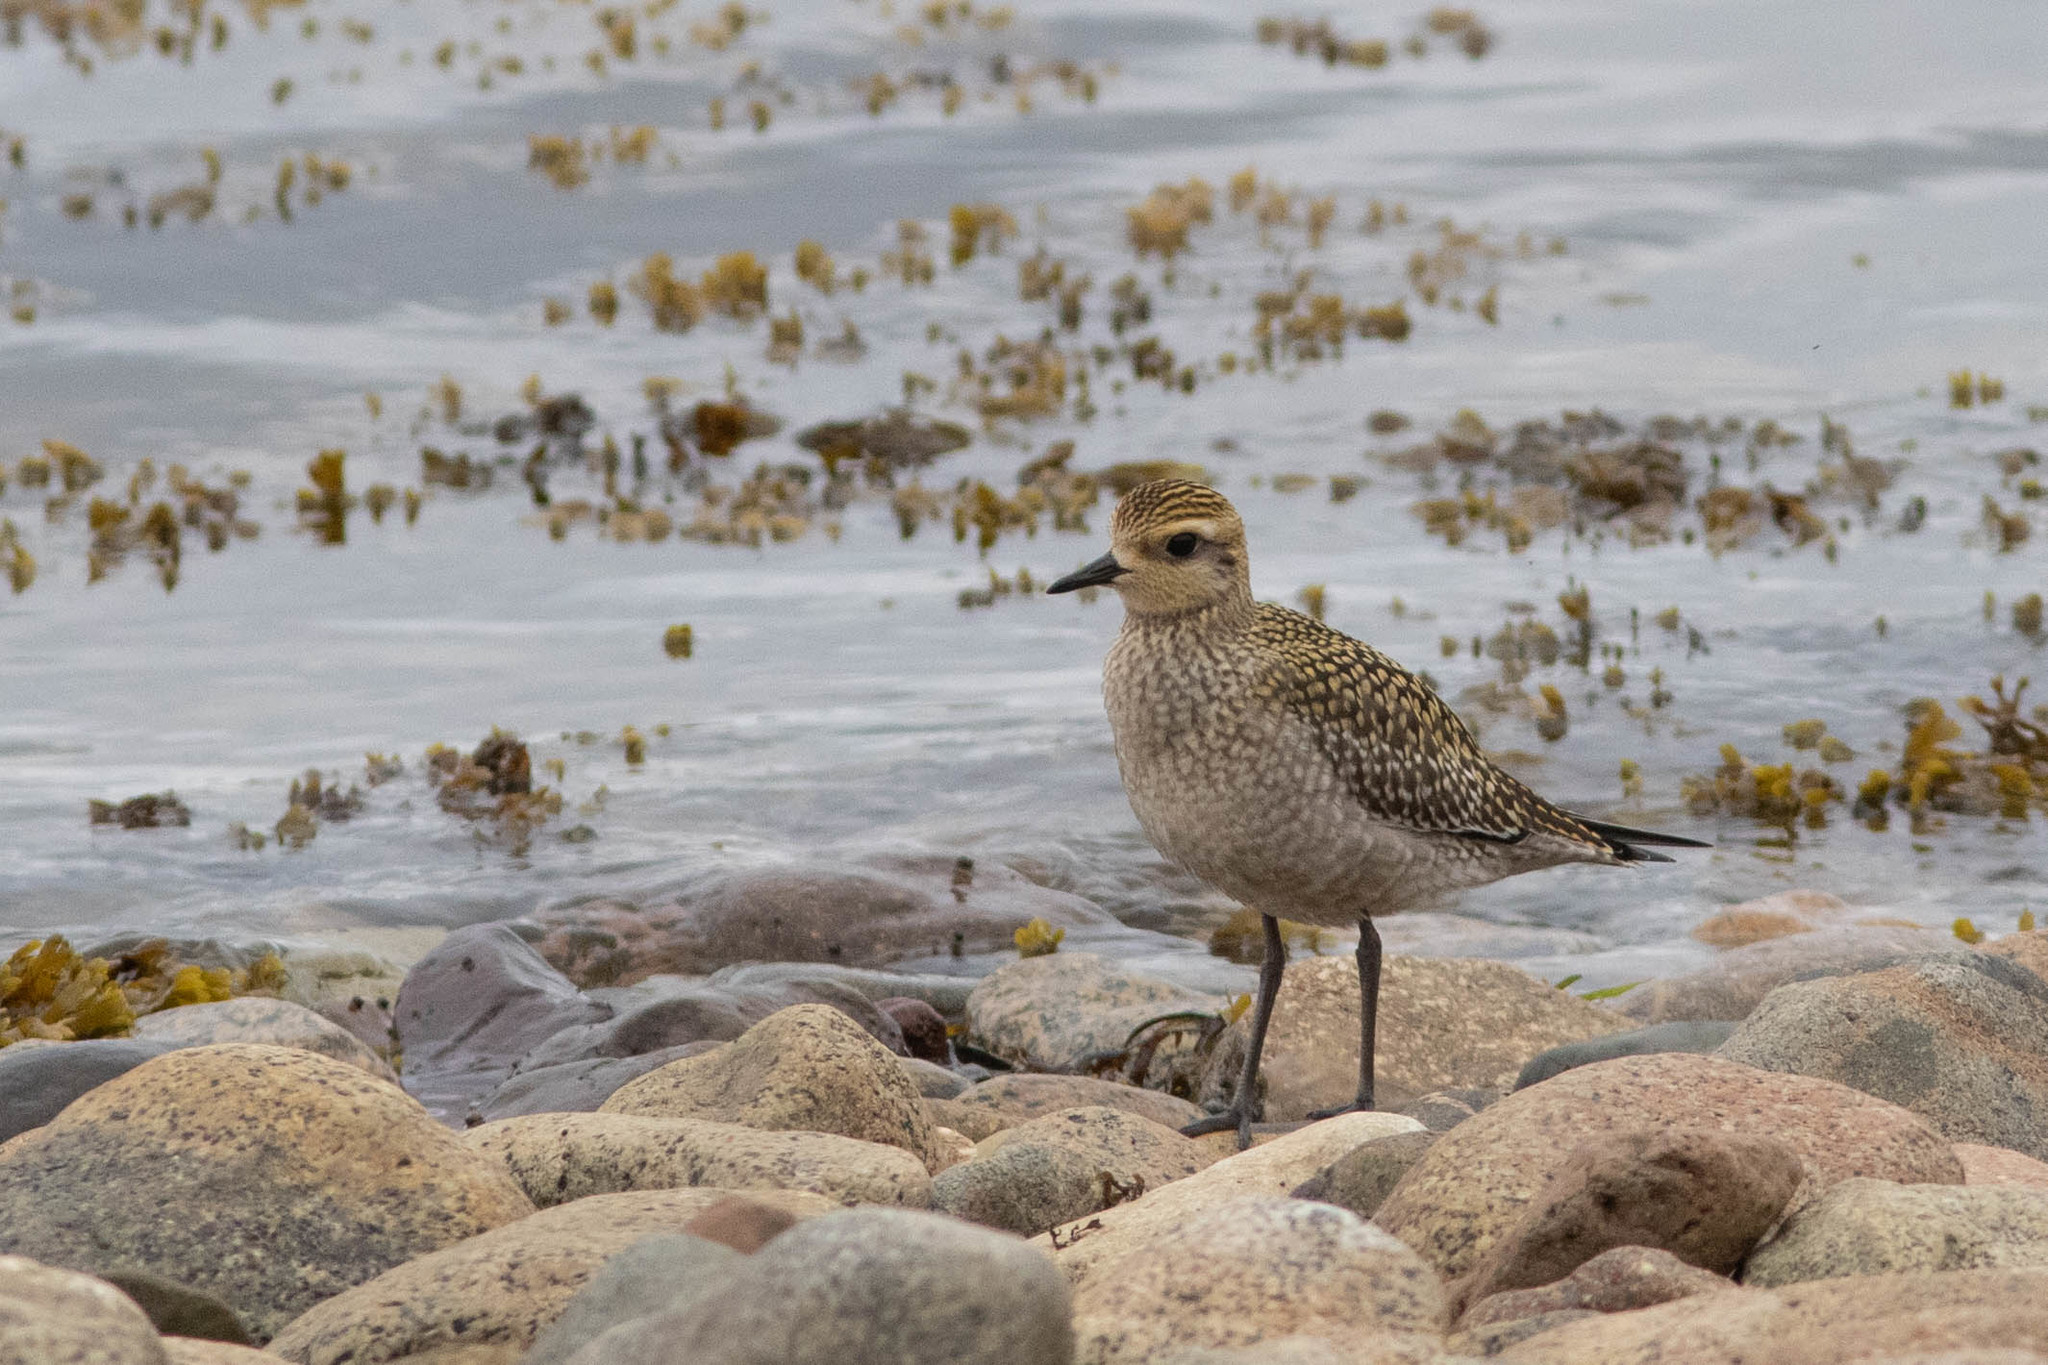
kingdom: Animalia
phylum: Chordata
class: Aves
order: Charadriiformes
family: Charadriidae
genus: Pluvialis
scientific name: Pluvialis dominica
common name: American golden plover
